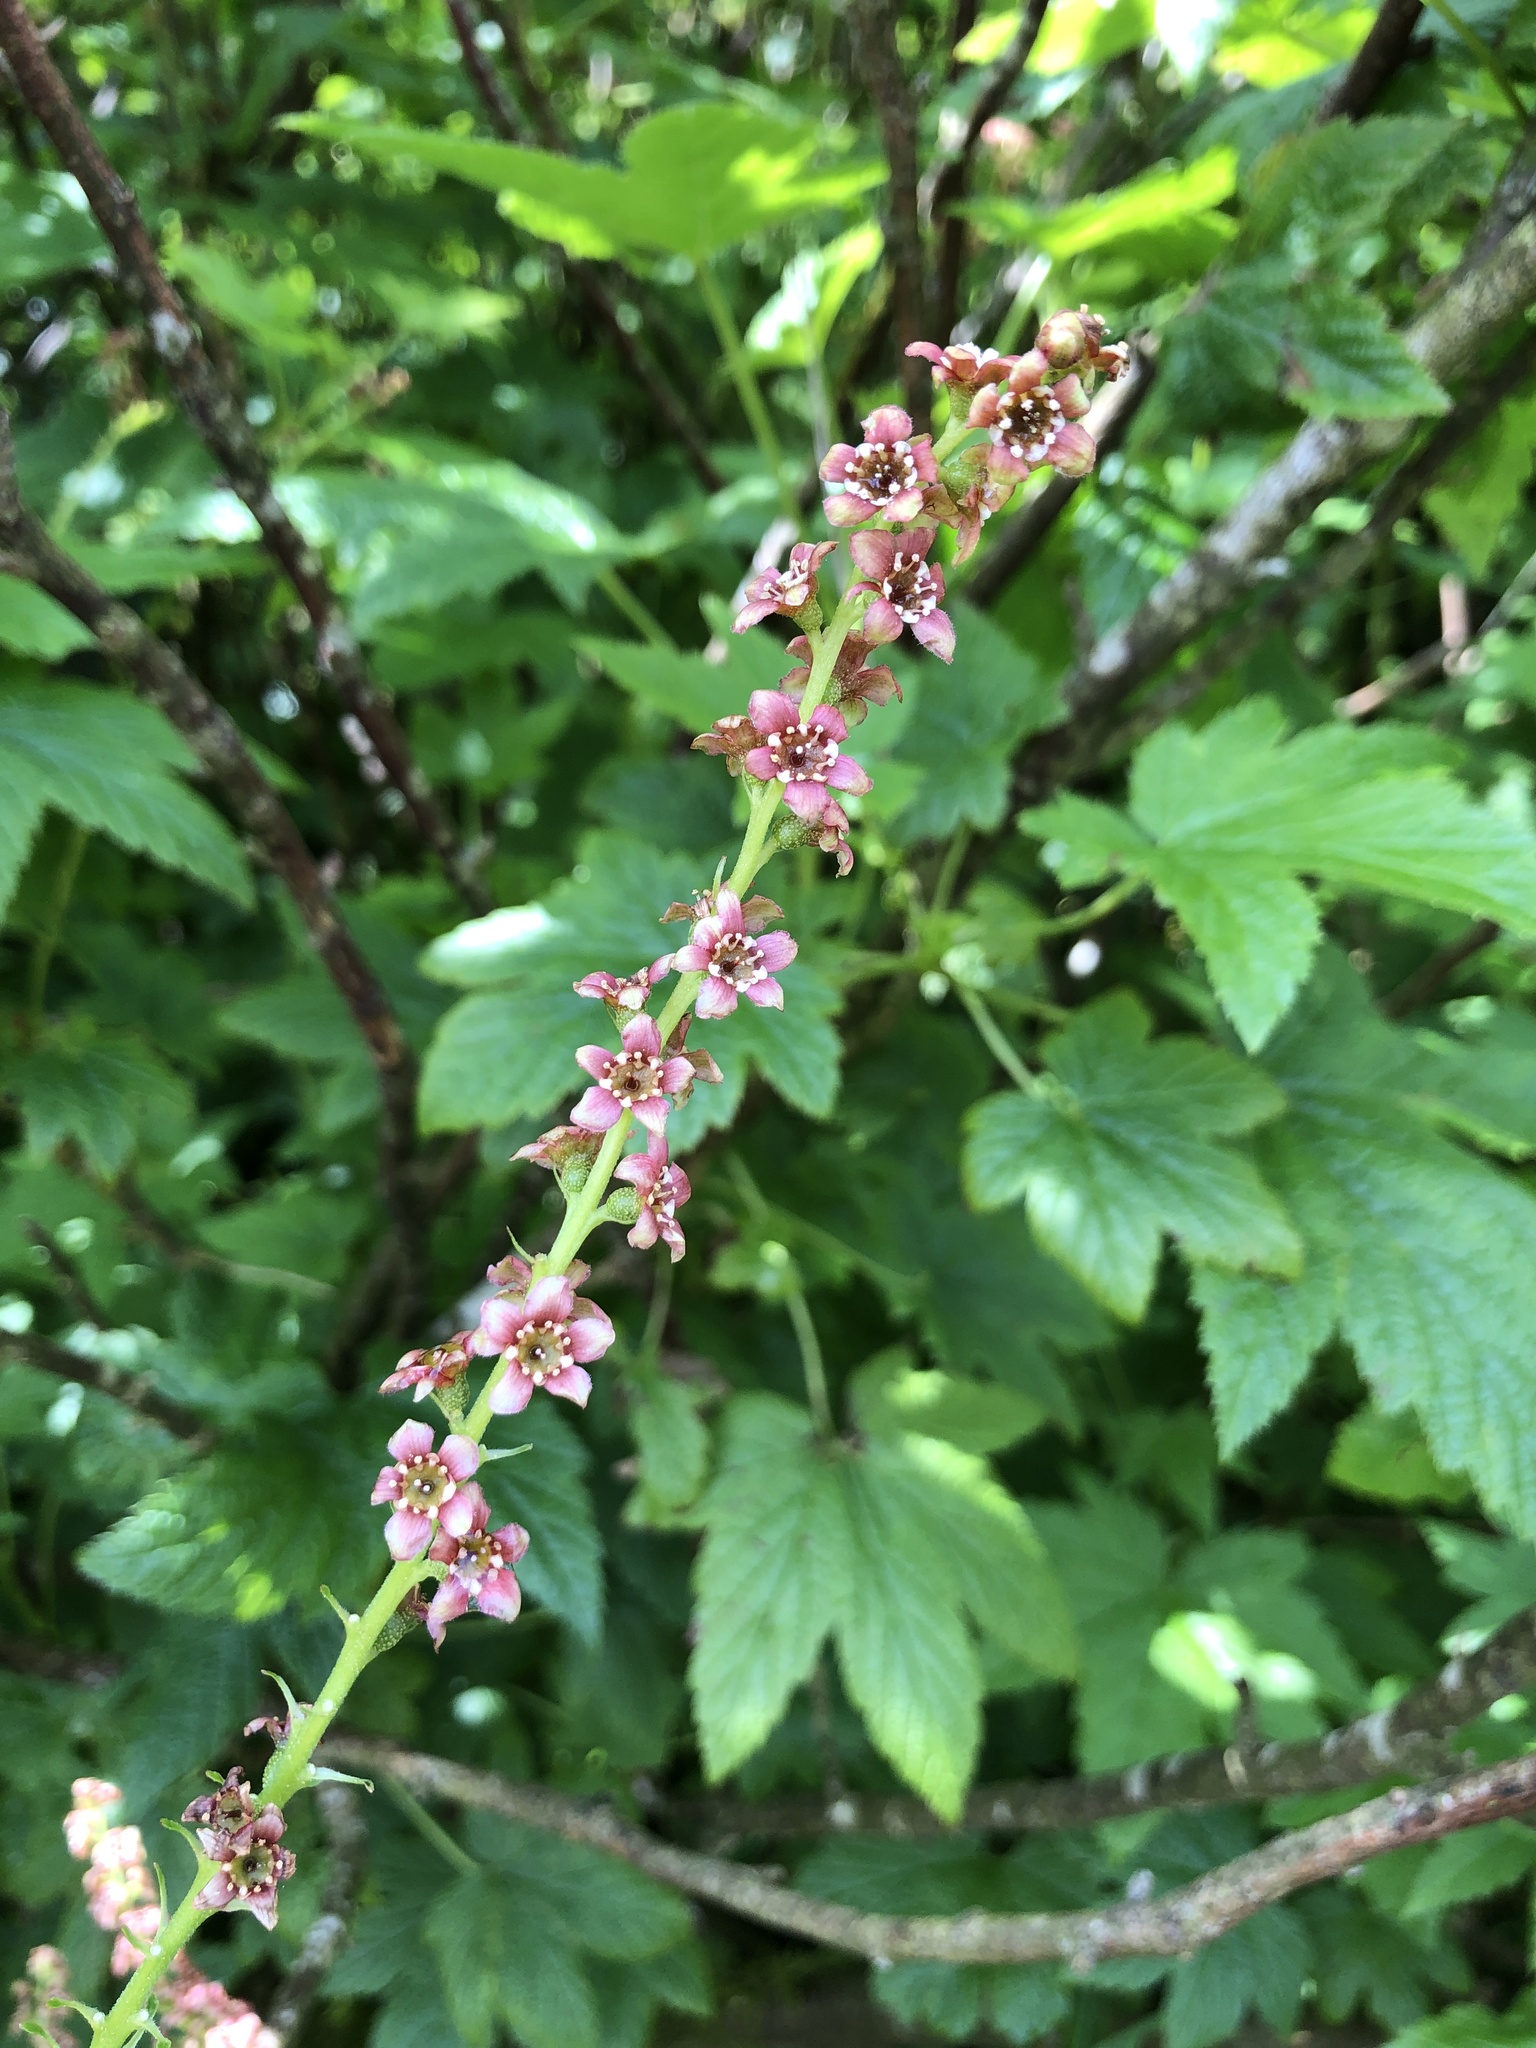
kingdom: Plantae
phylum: Tracheophyta
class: Magnoliopsida
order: Saxifragales
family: Grossulariaceae
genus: Ribes
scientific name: Ribes bracteosum
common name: California black currant
